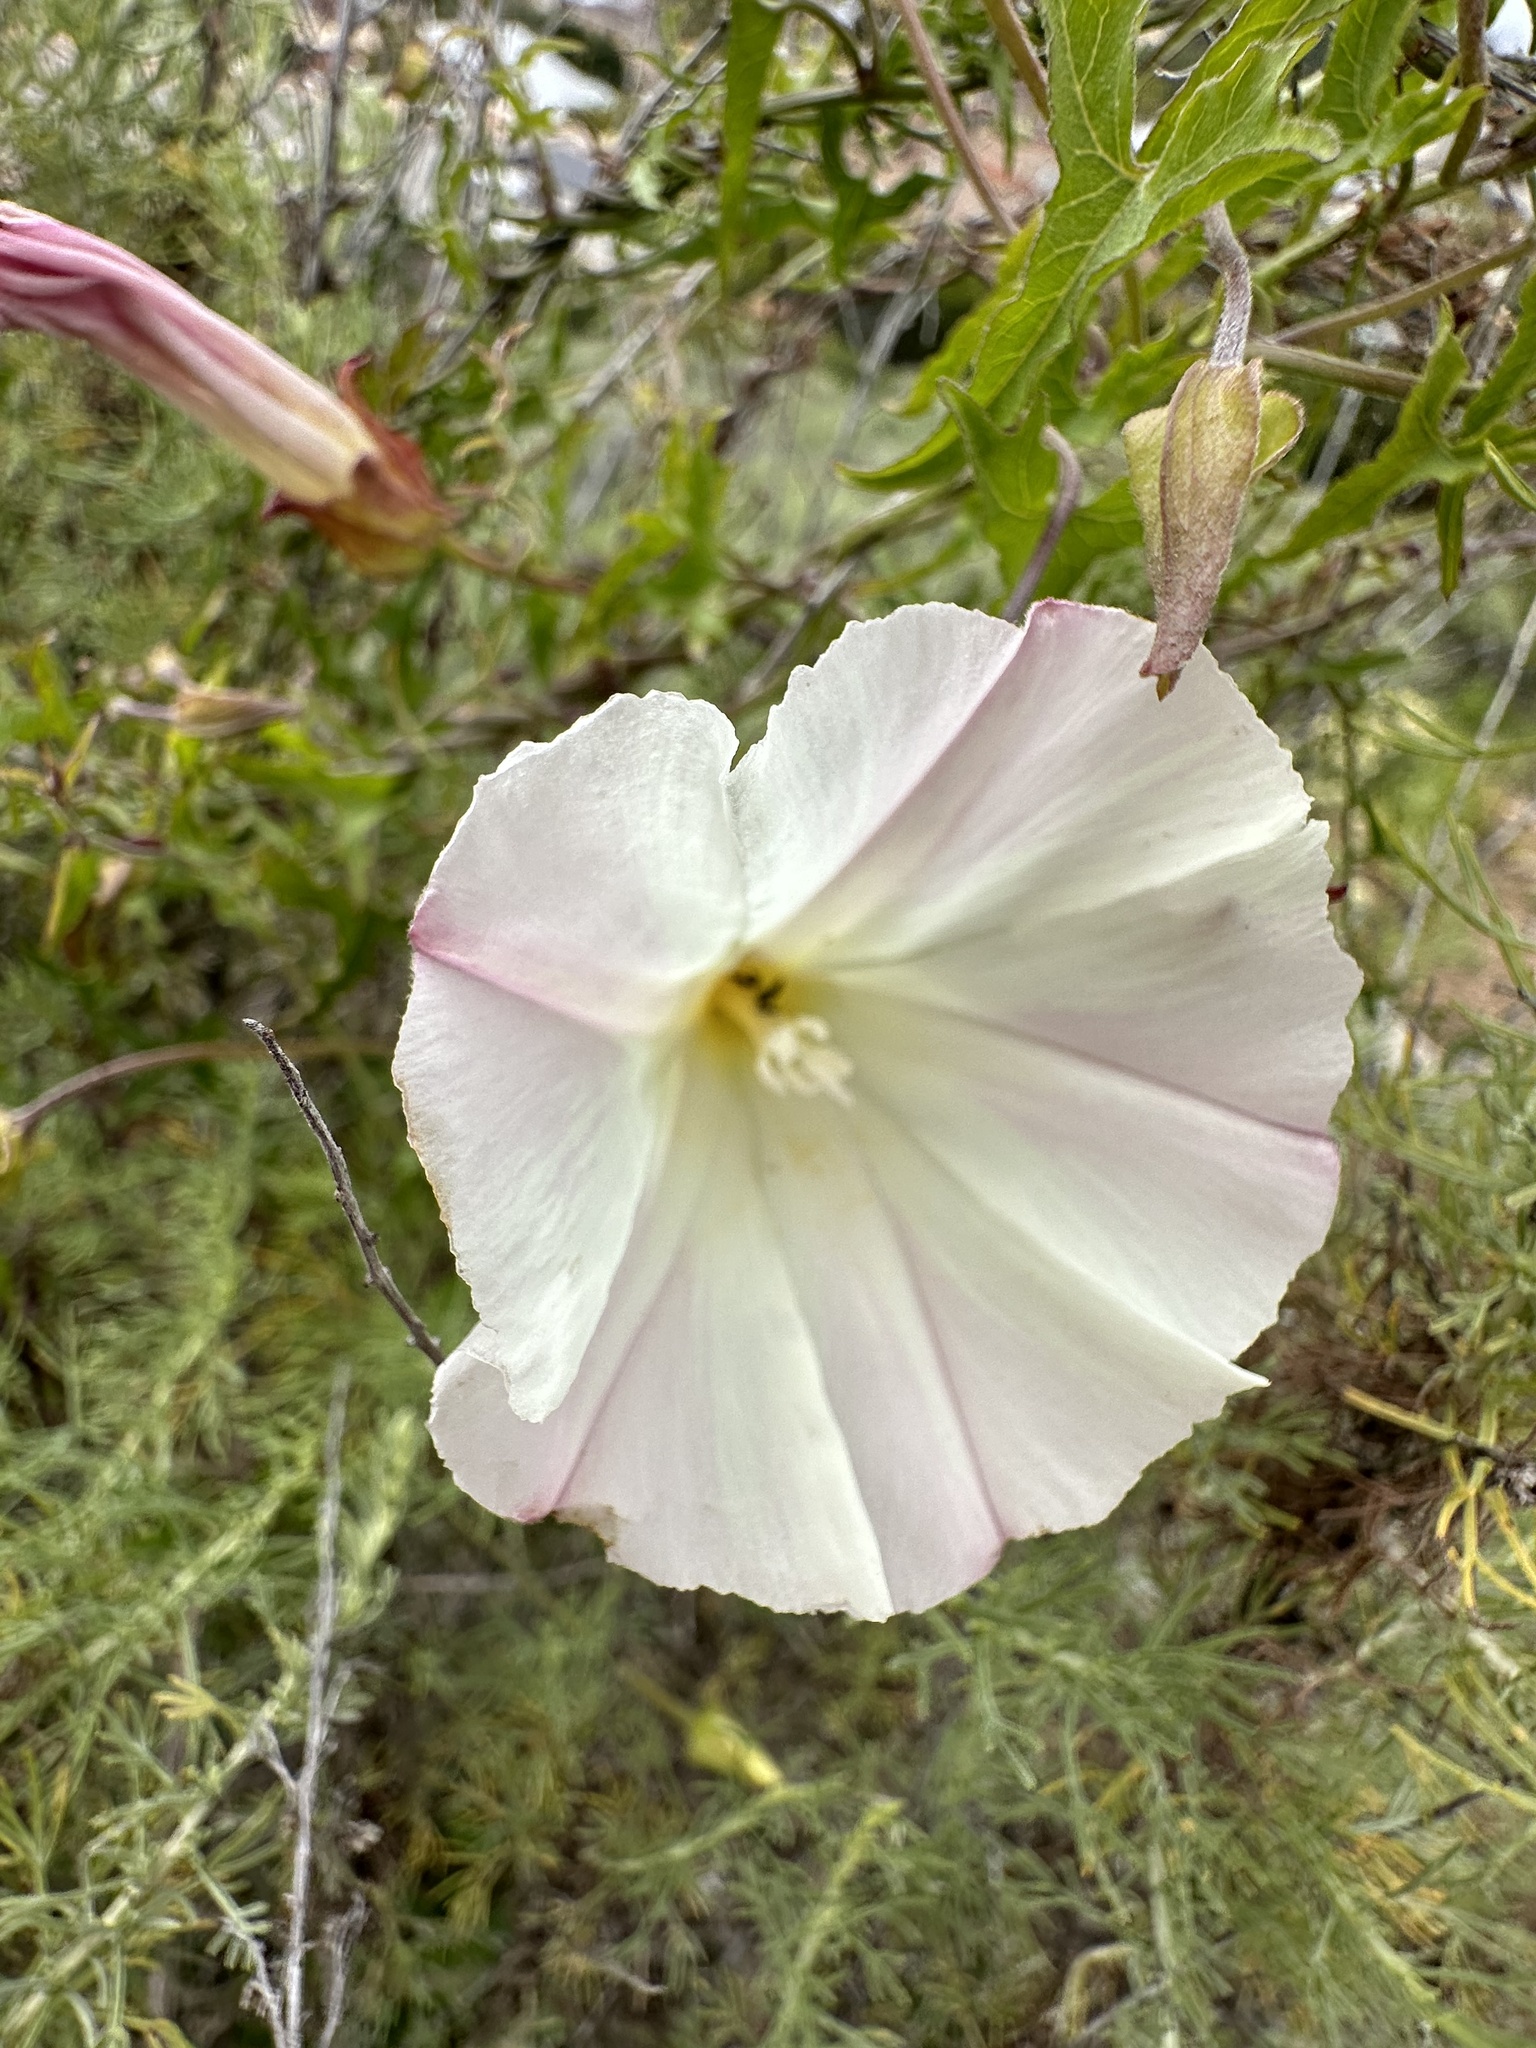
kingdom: Plantae
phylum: Tracheophyta
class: Magnoliopsida
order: Solanales
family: Convolvulaceae
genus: Calystegia
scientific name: Calystegia macrostegia
